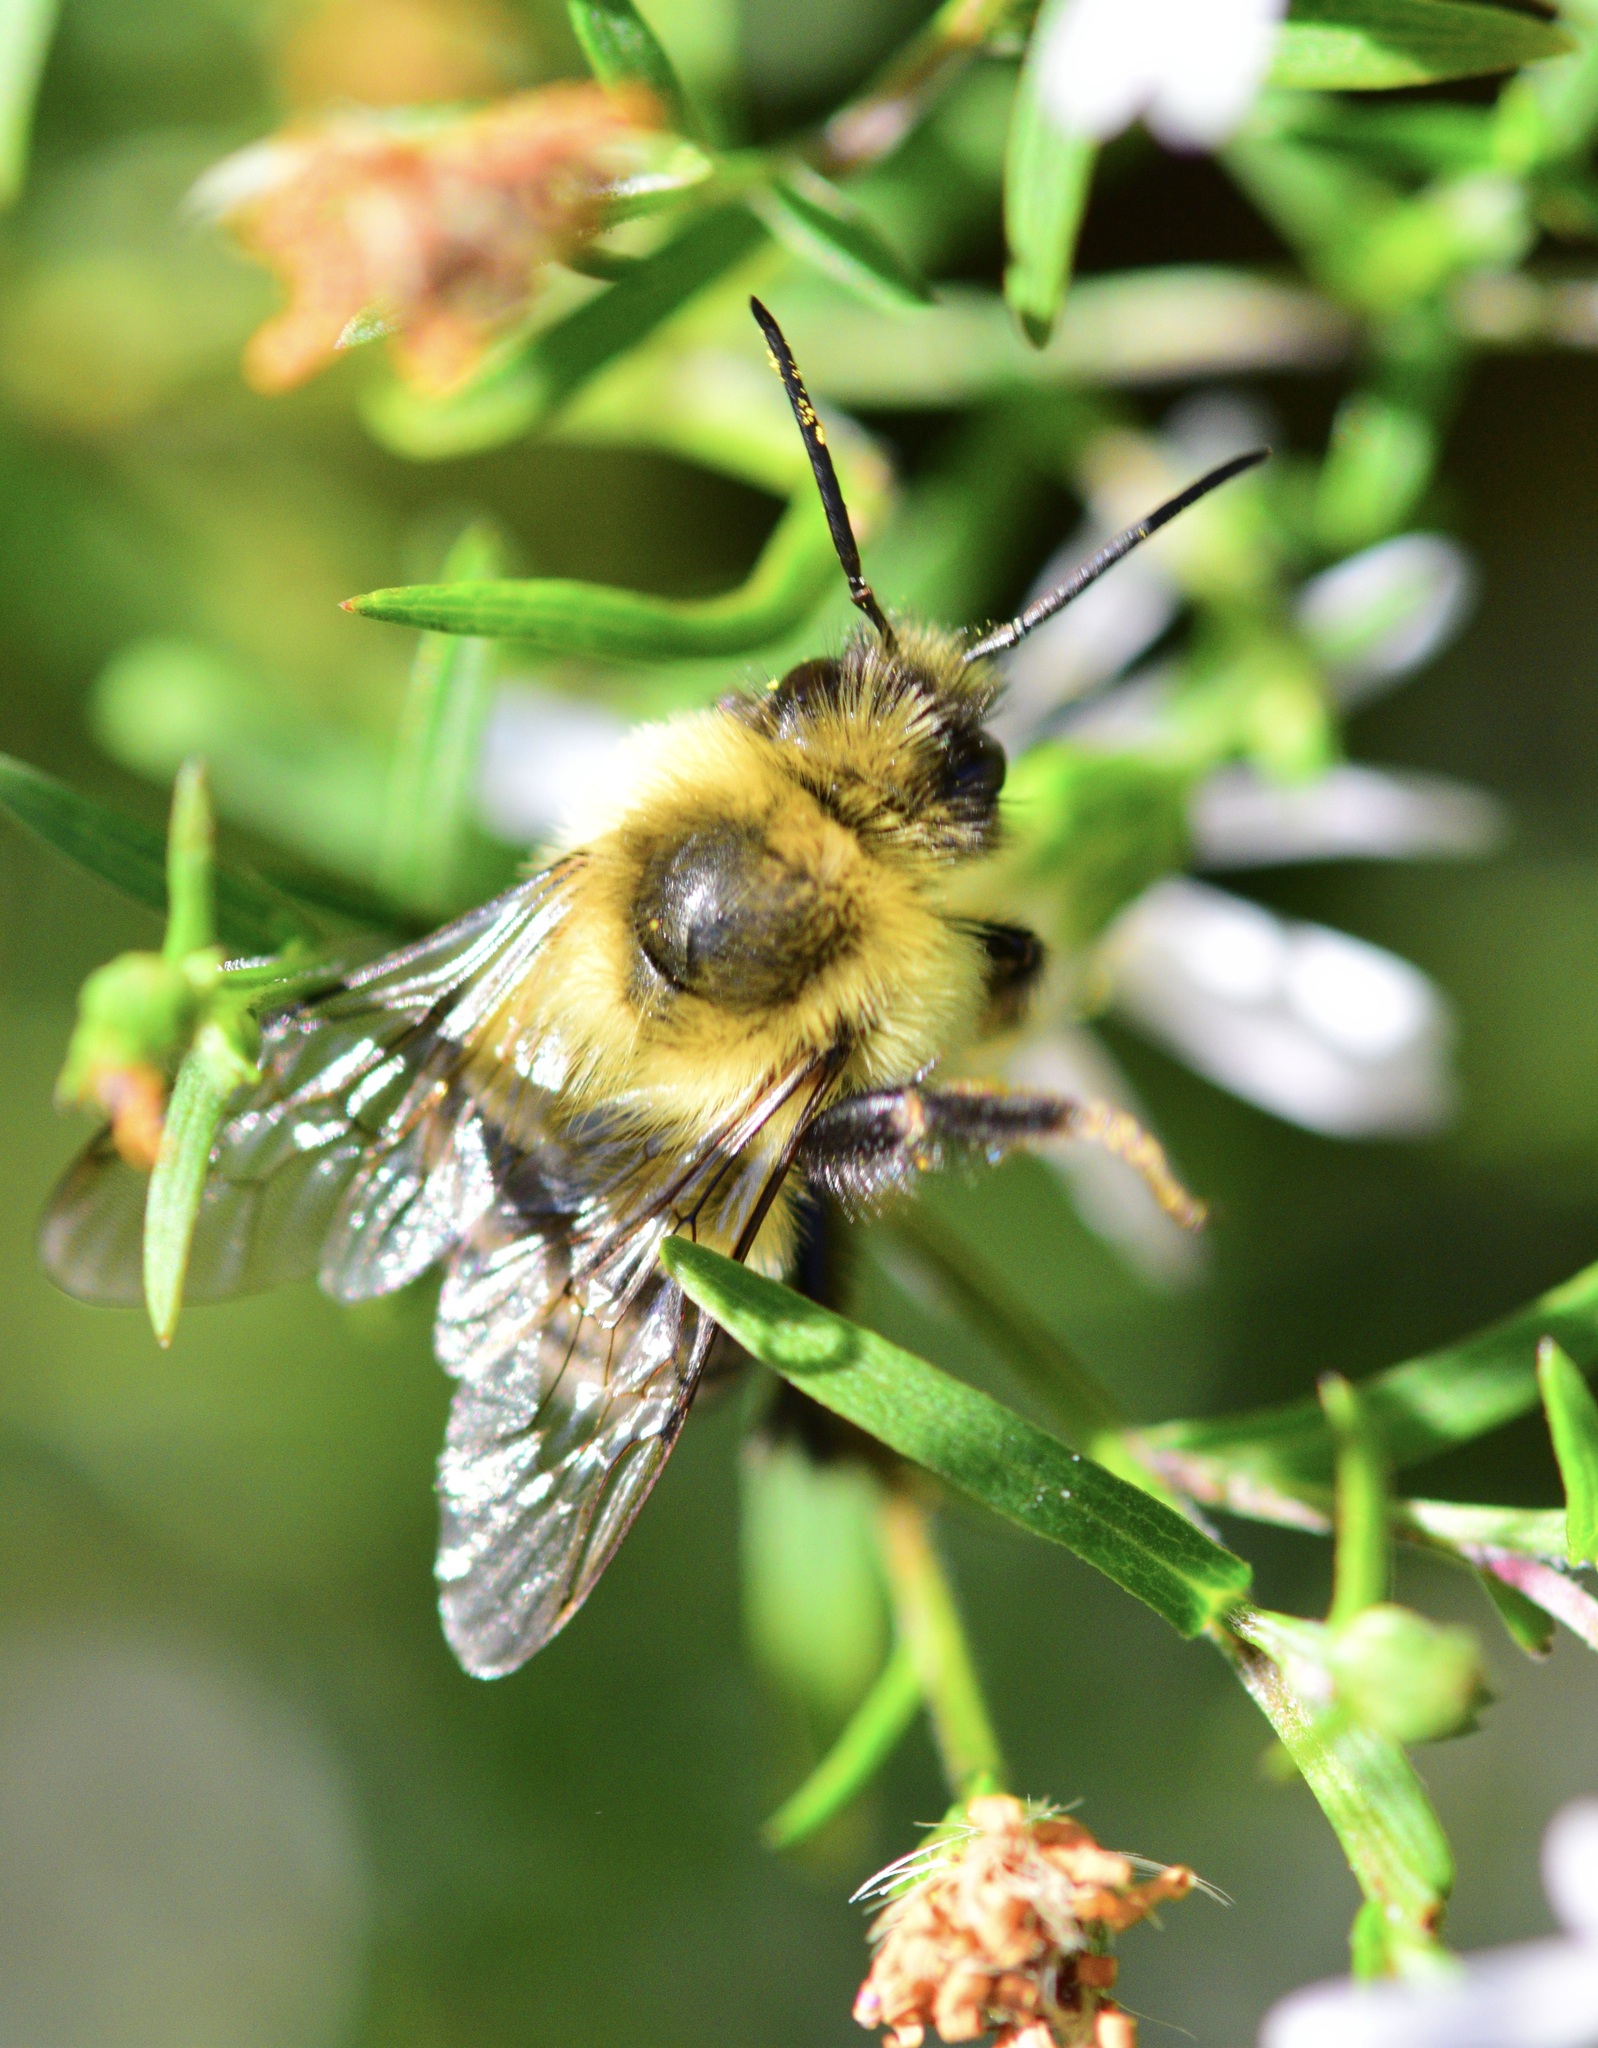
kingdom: Animalia
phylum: Arthropoda
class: Insecta
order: Hymenoptera
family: Apidae
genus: Bombus
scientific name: Bombus impatiens
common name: Common eastern bumble bee
